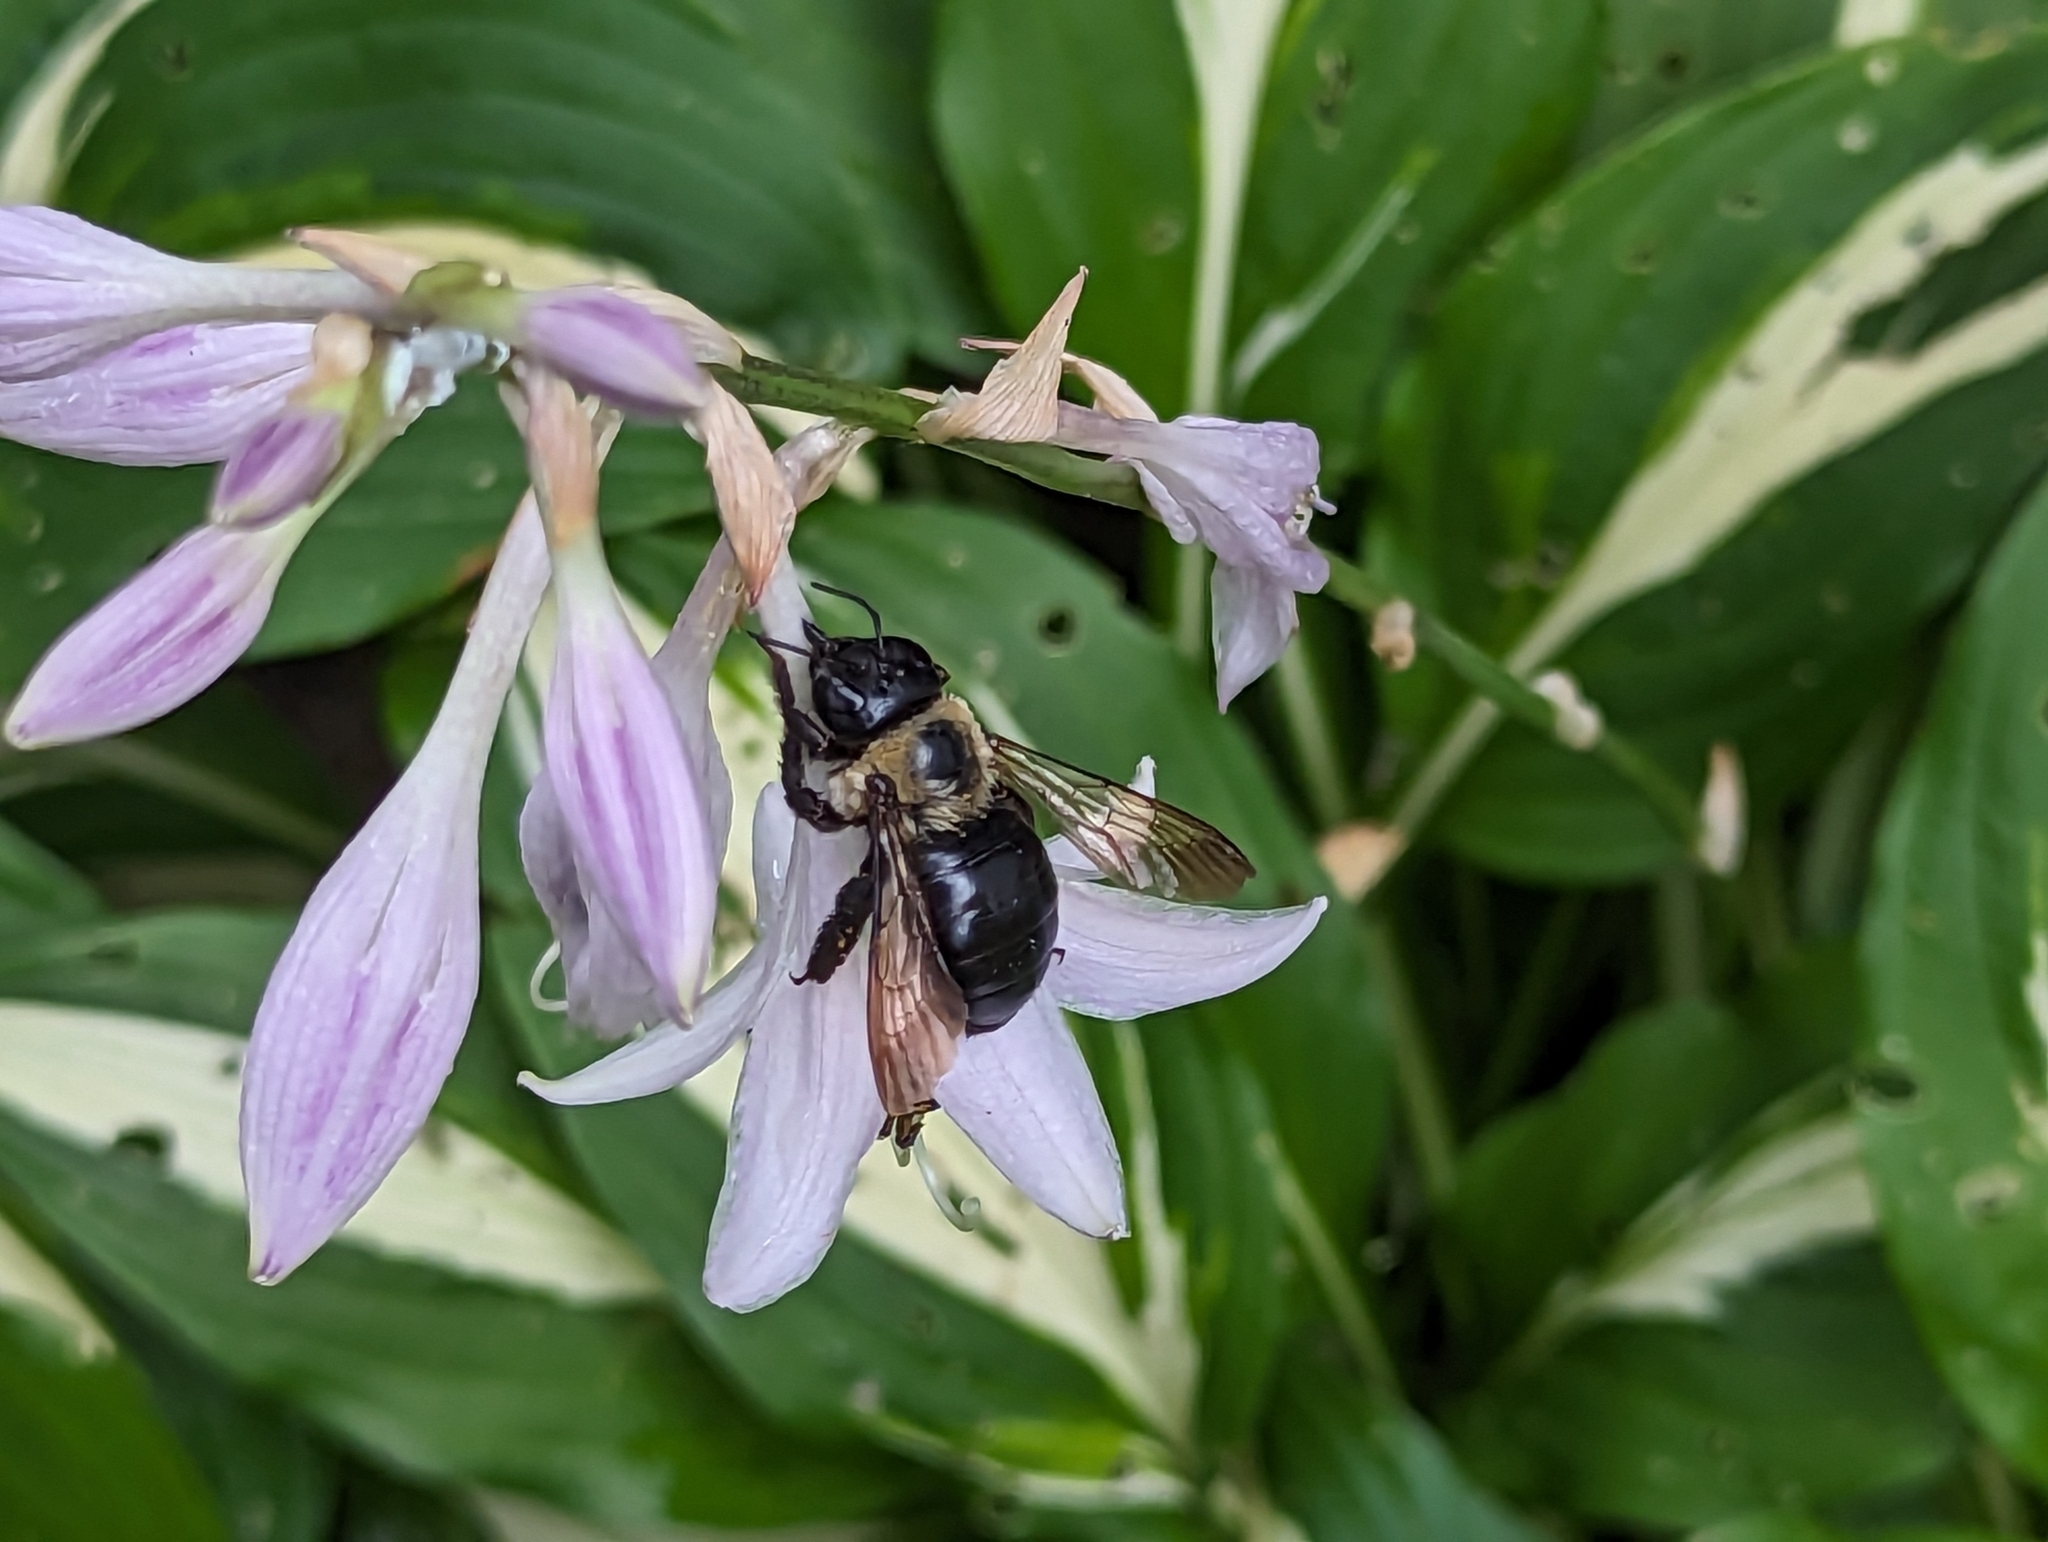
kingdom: Animalia
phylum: Arthropoda
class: Insecta
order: Hymenoptera
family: Apidae
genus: Xylocopa
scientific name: Xylocopa virginica
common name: Carpenter bee
